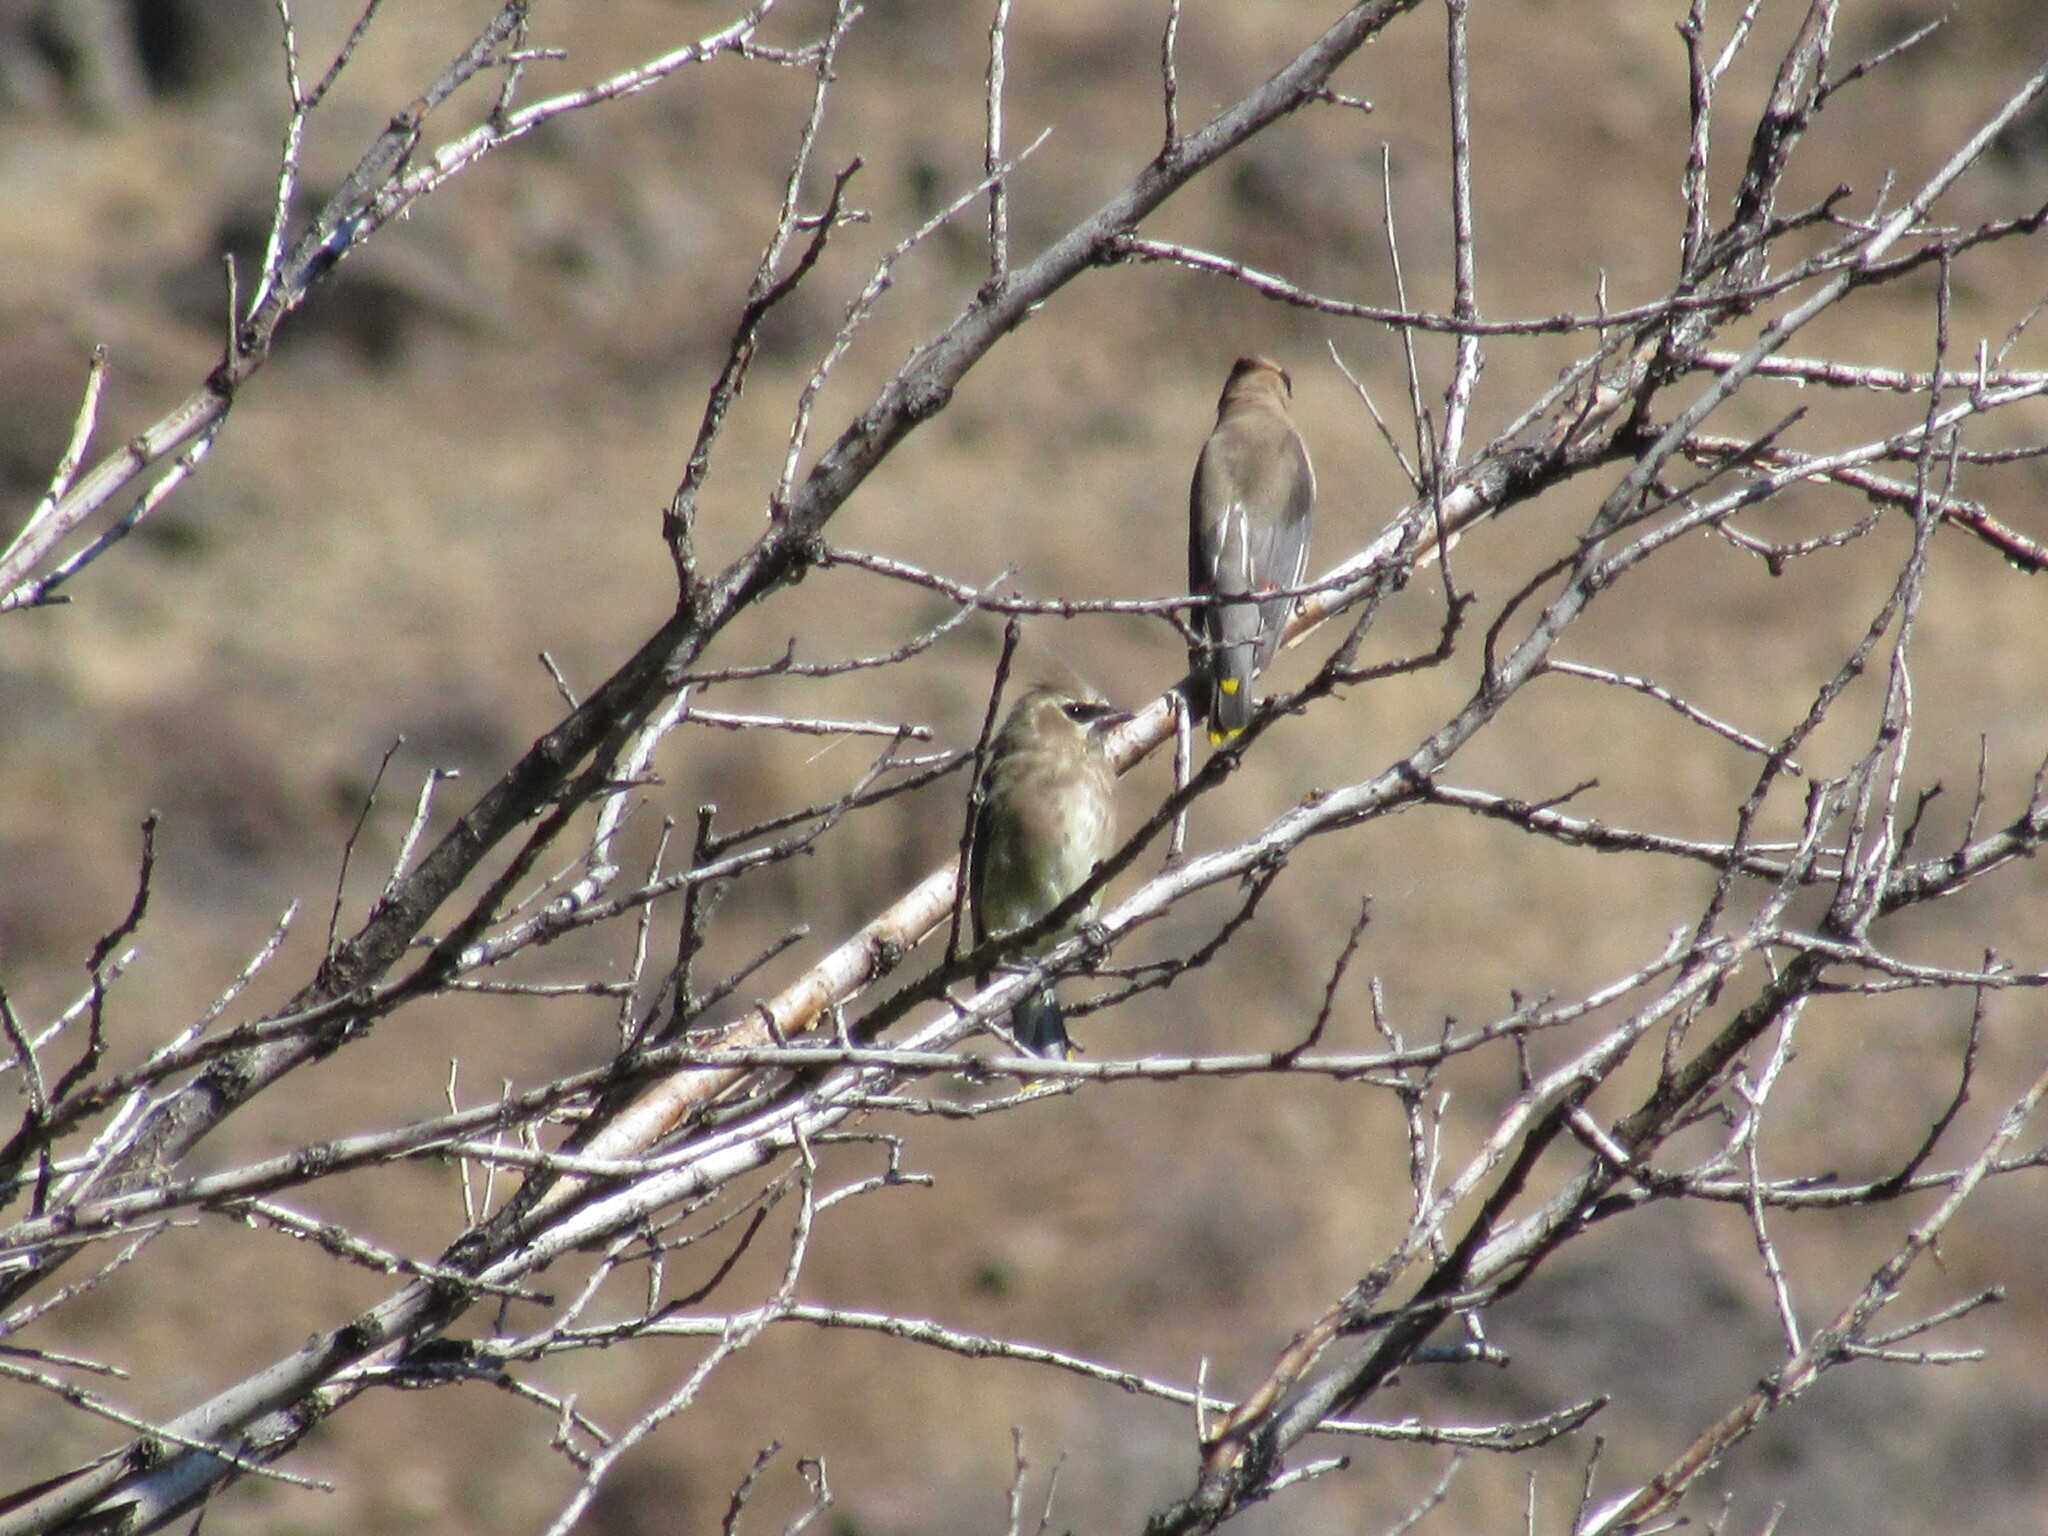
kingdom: Animalia
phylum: Chordata
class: Aves
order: Passeriformes
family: Bombycillidae
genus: Bombycilla
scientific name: Bombycilla cedrorum
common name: Cedar waxwing
